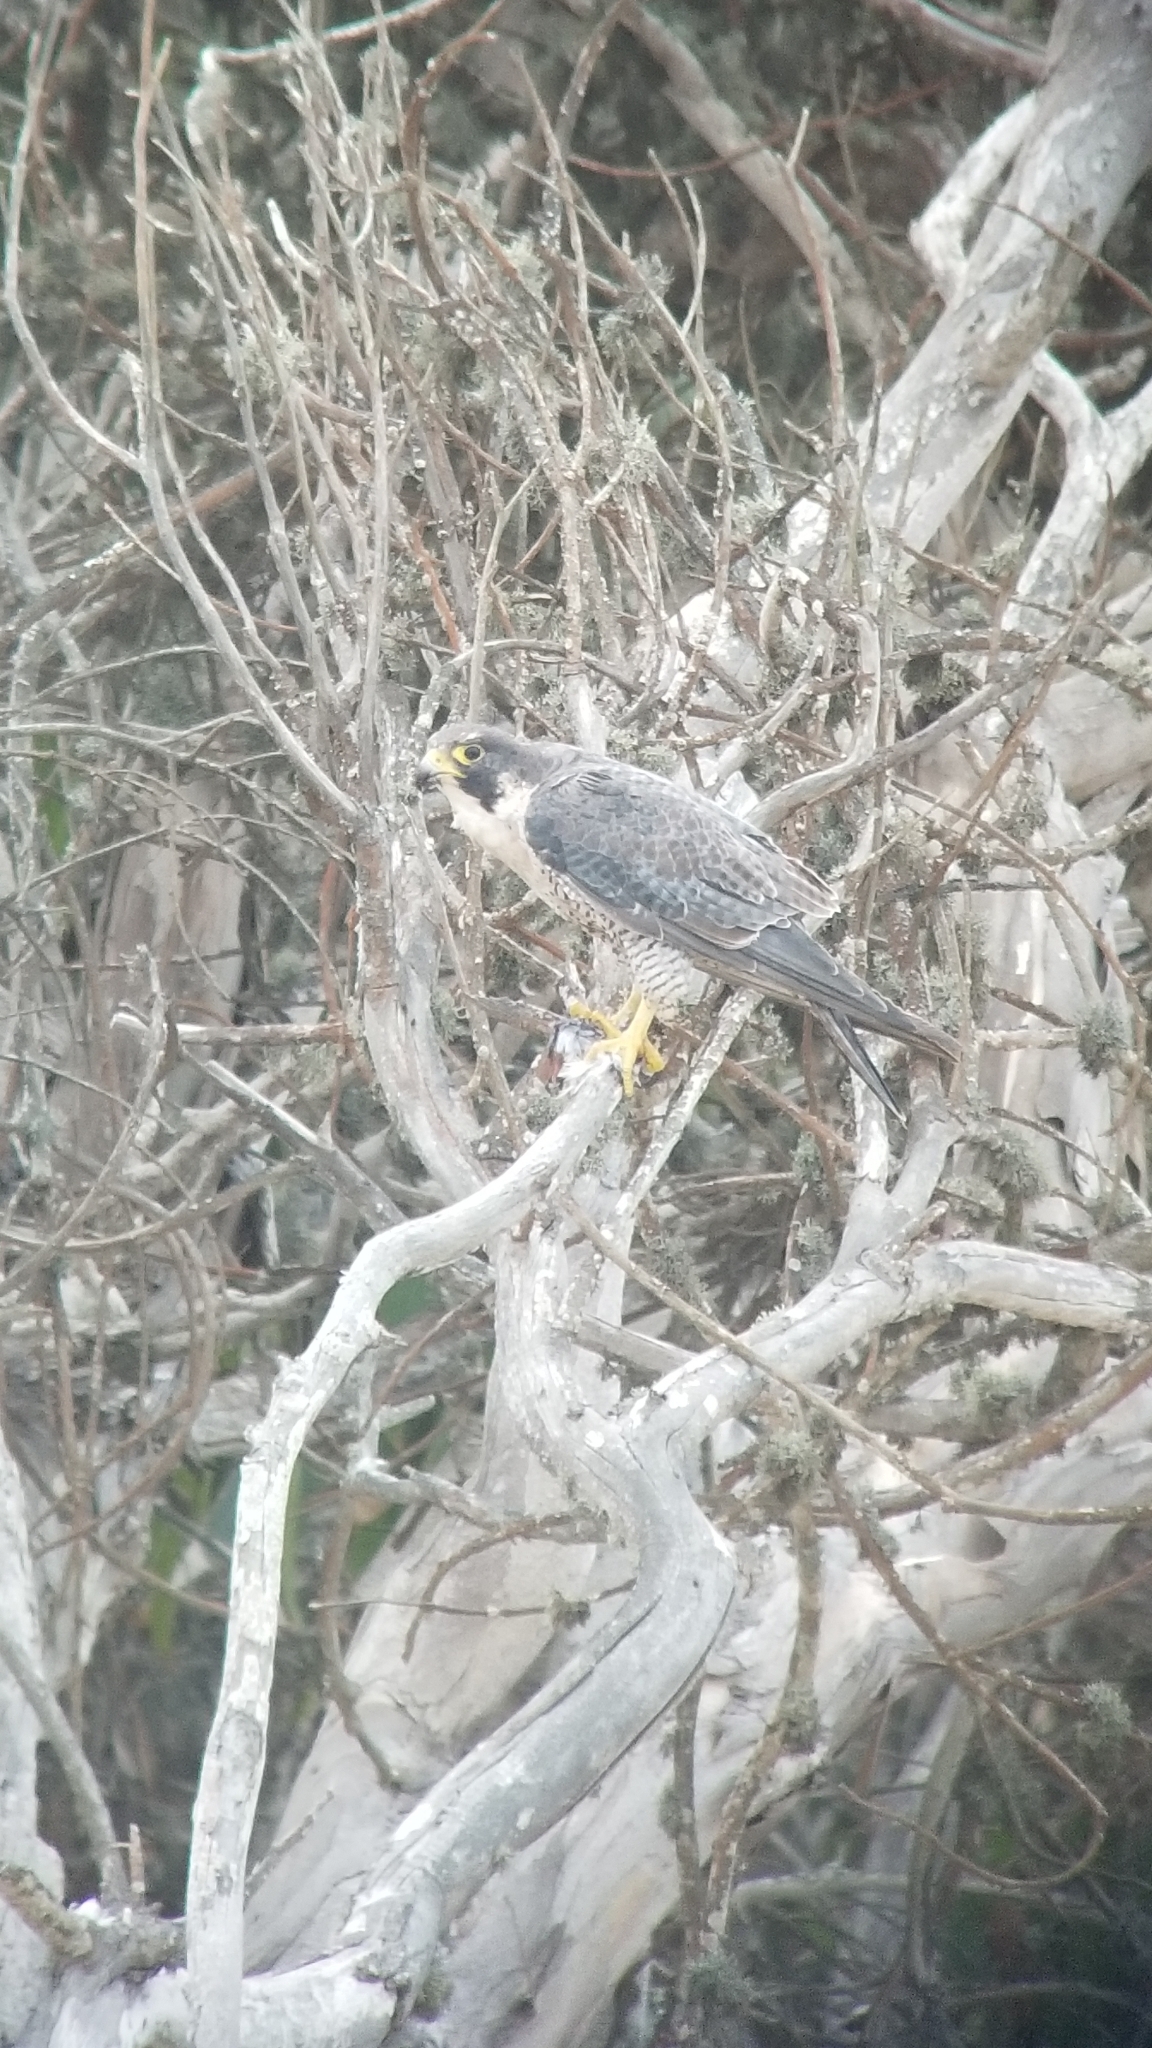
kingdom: Animalia
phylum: Chordata
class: Aves
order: Falconiformes
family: Falconidae
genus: Falco
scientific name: Falco peregrinus
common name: Peregrine falcon
